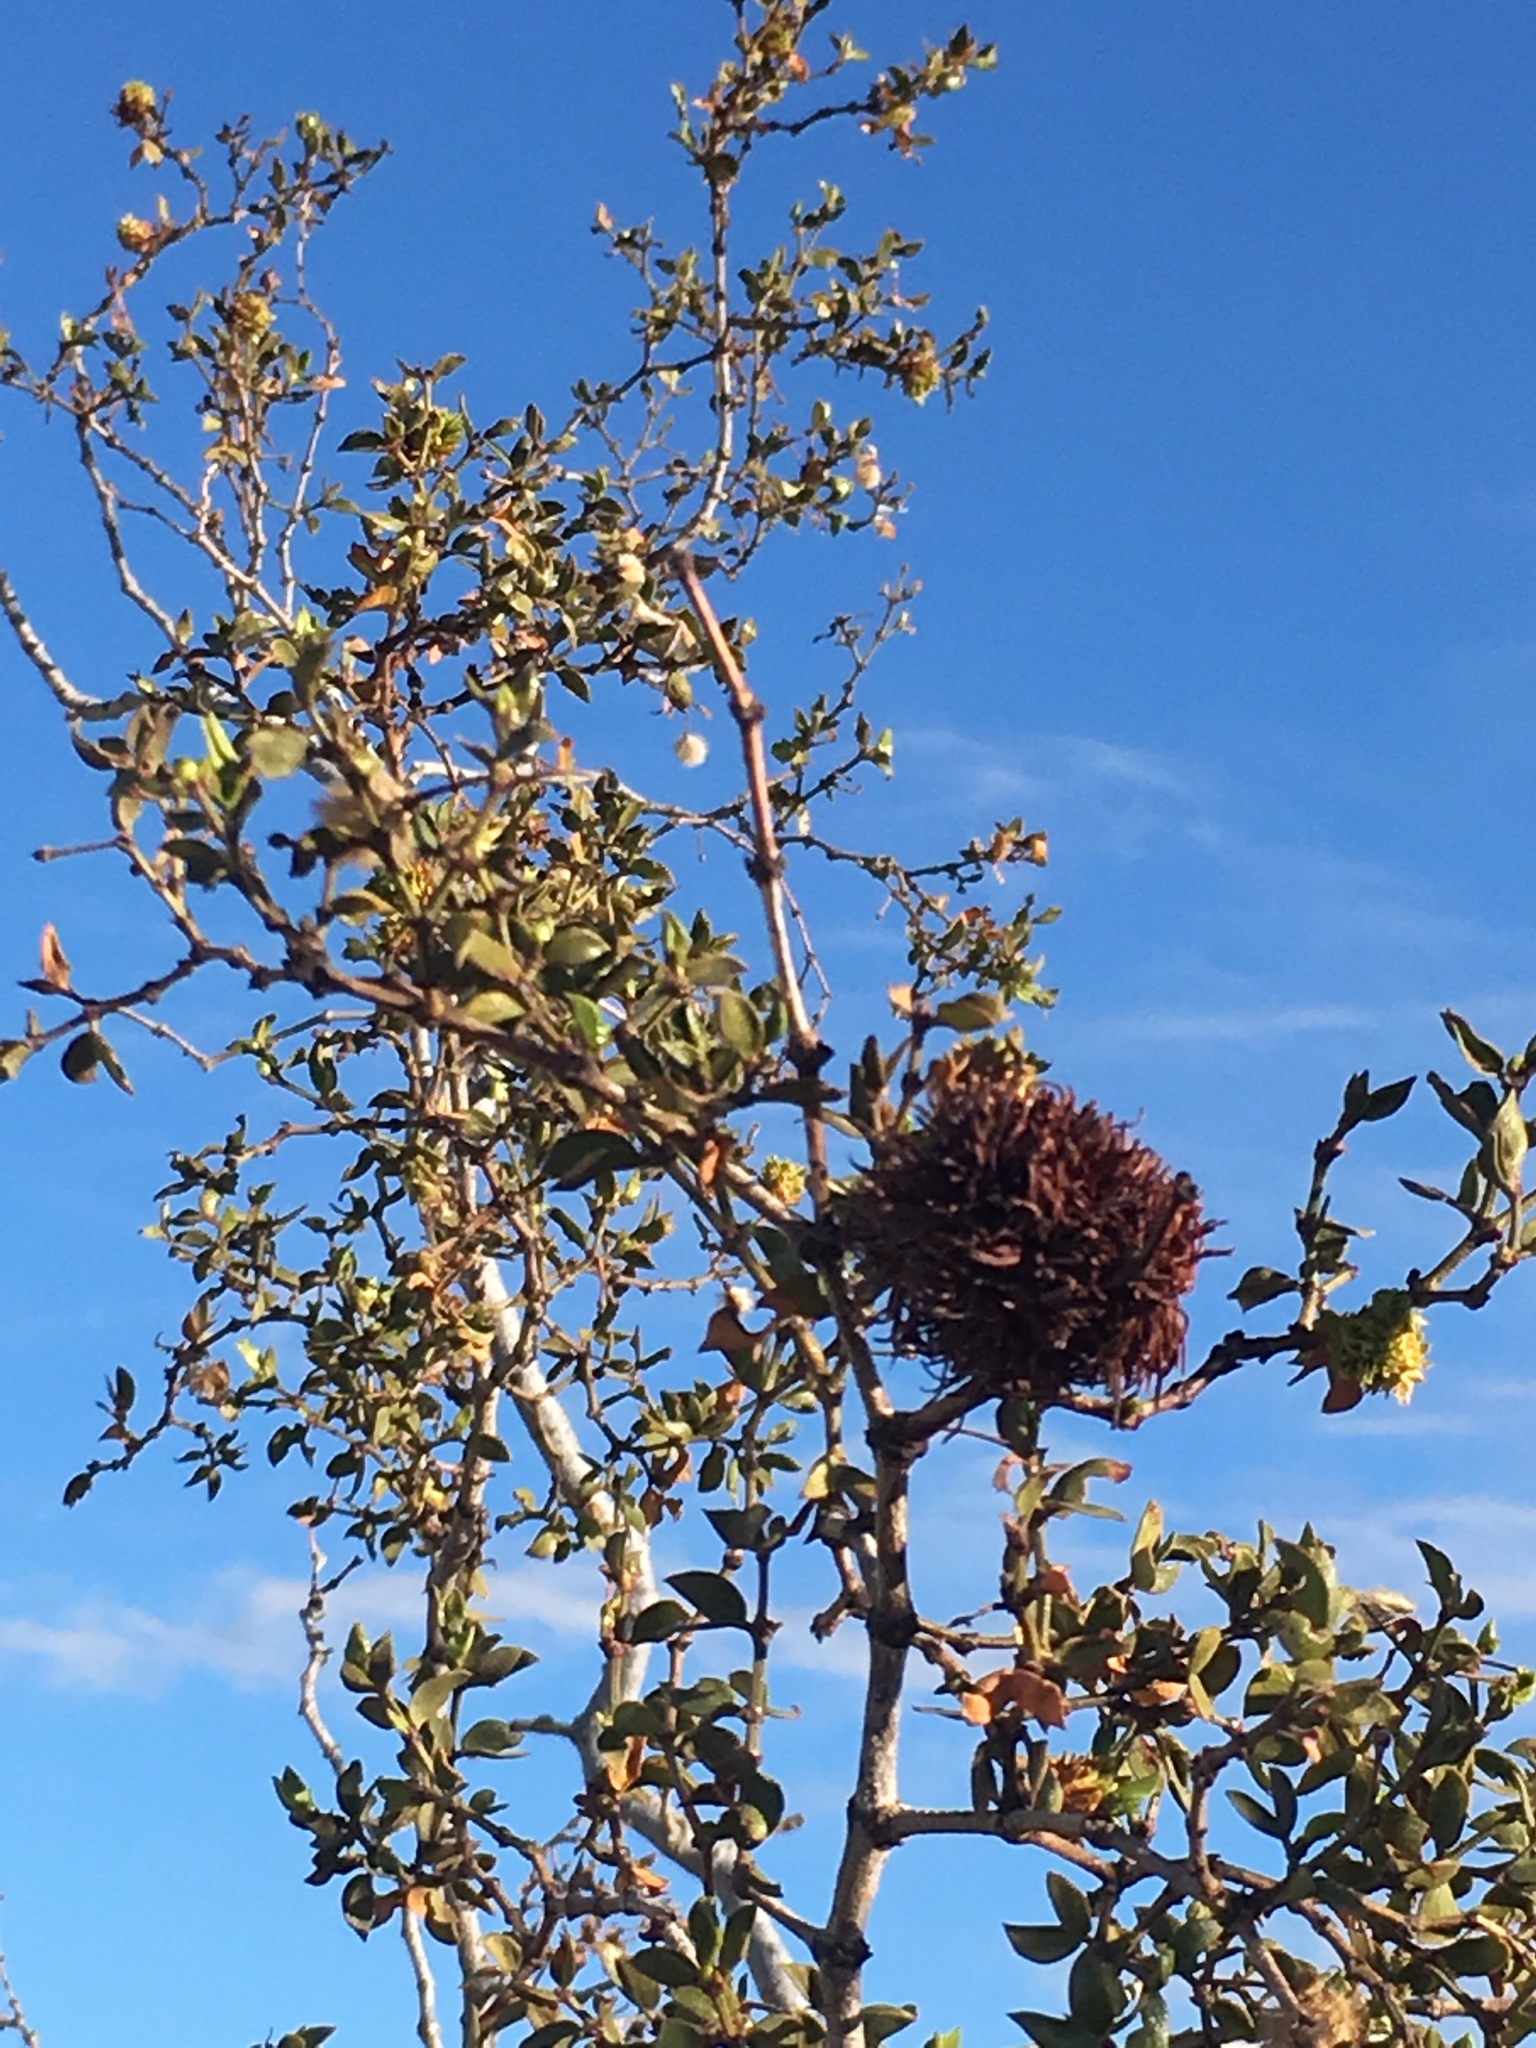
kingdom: Animalia
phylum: Arthropoda
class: Insecta
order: Diptera
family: Cecidomyiidae
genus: Asphondylia
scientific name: Asphondylia auripila
